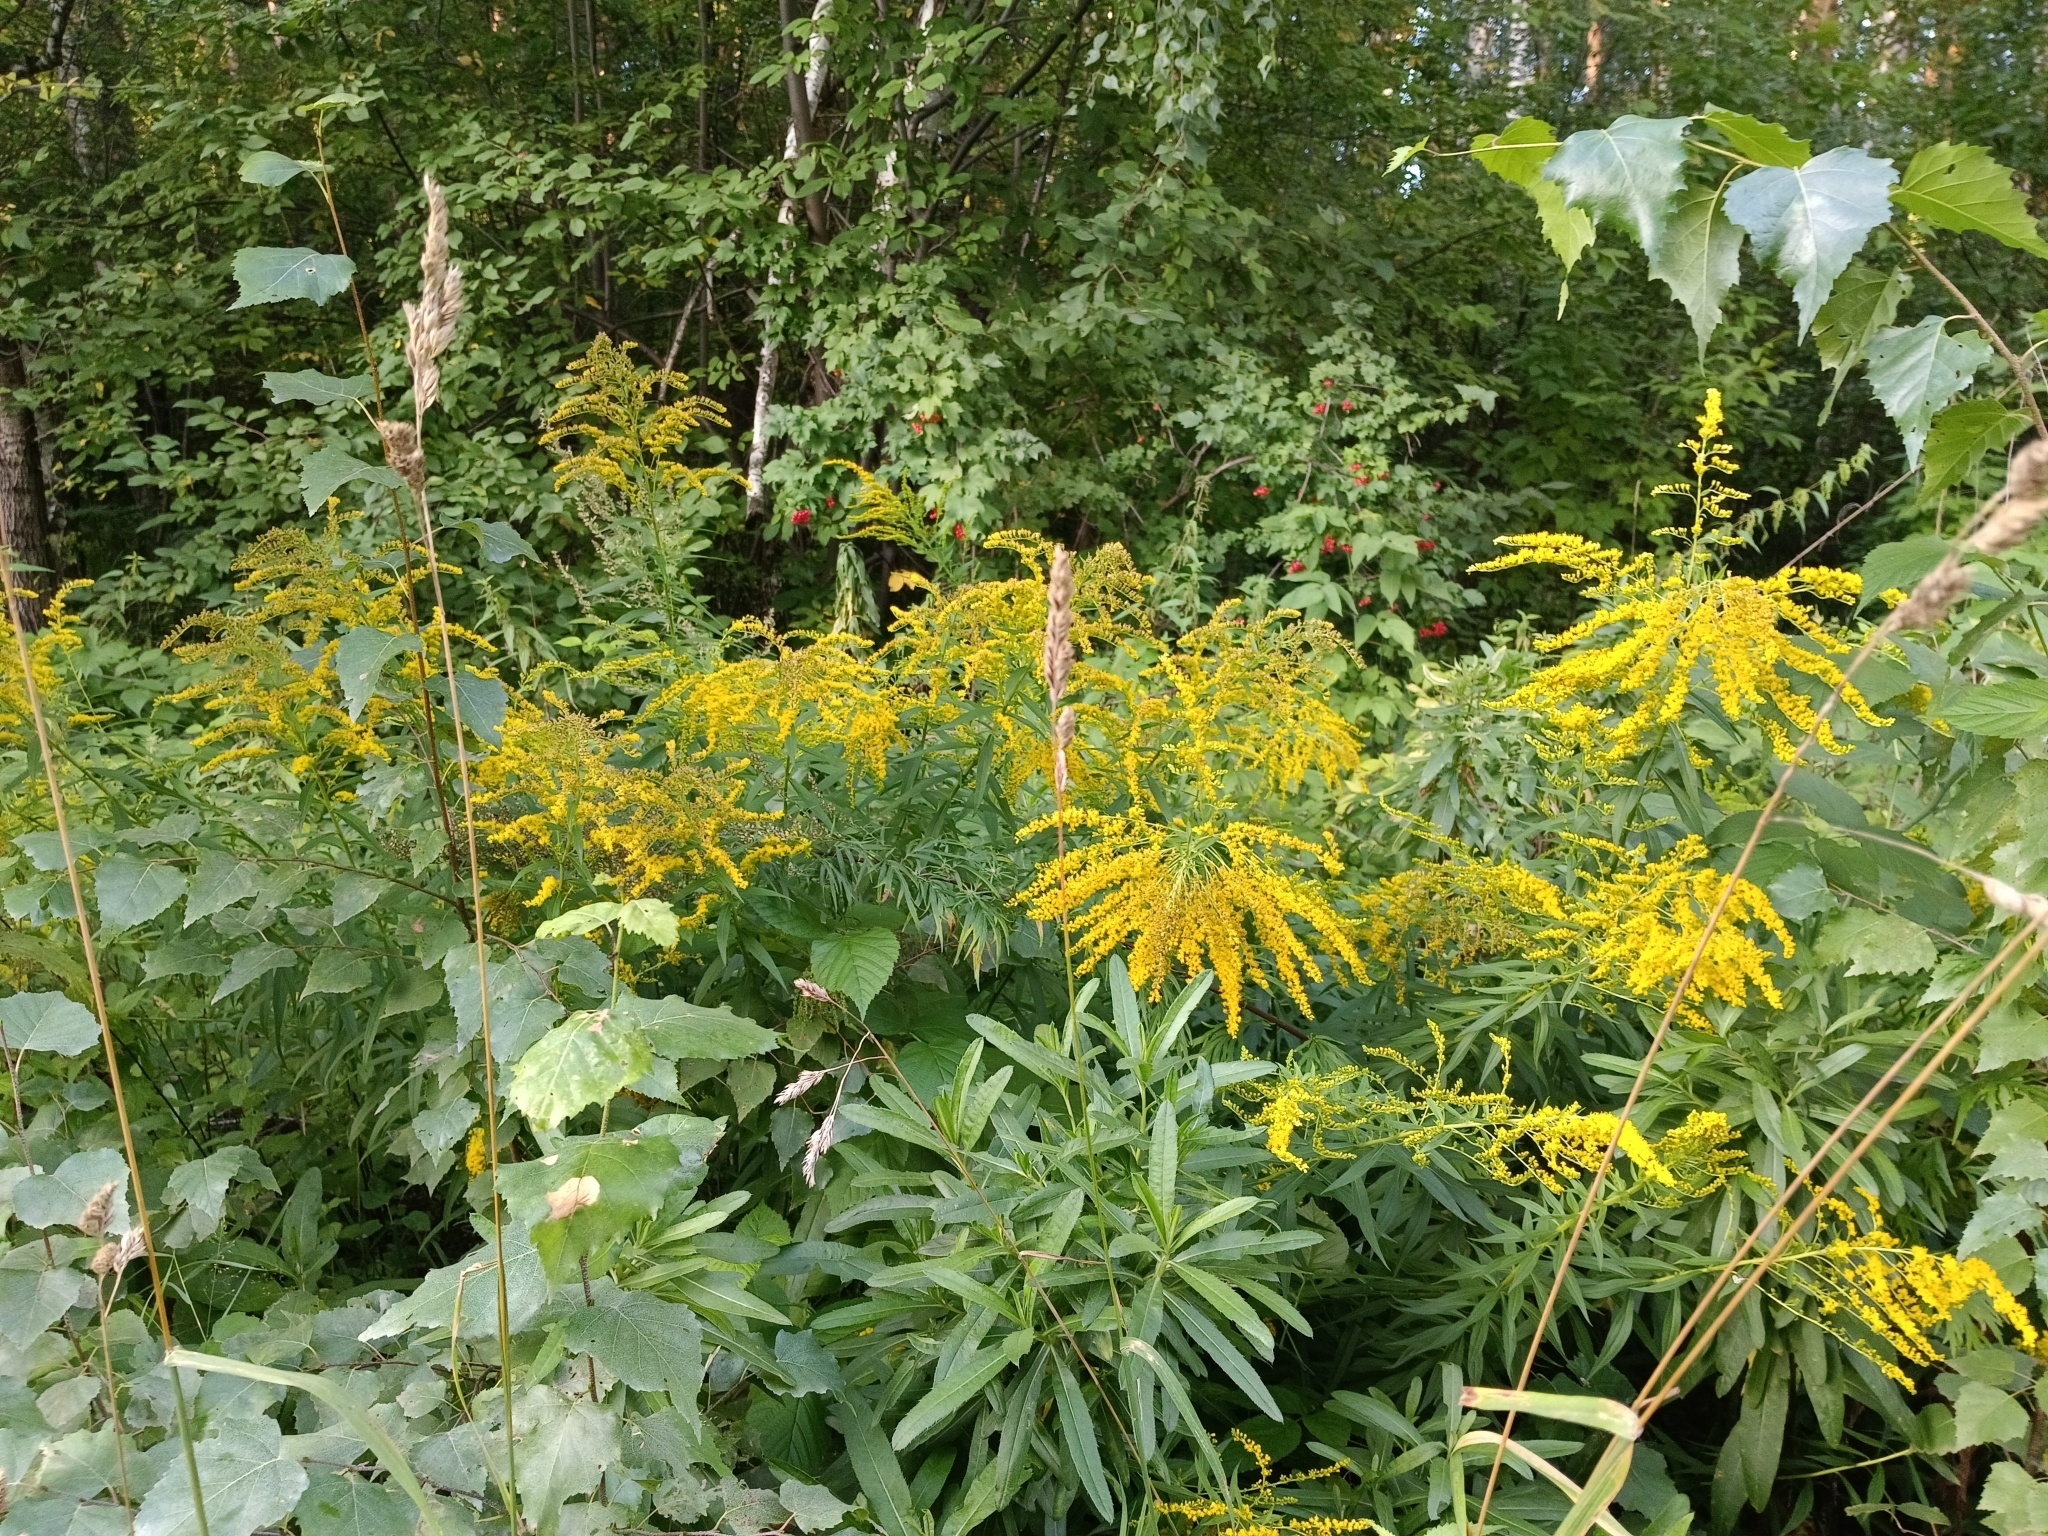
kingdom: Plantae
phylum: Tracheophyta
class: Magnoliopsida
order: Asterales
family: Asteraceae
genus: Solidago
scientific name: Solidago canadensis
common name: Canada goldenrod
